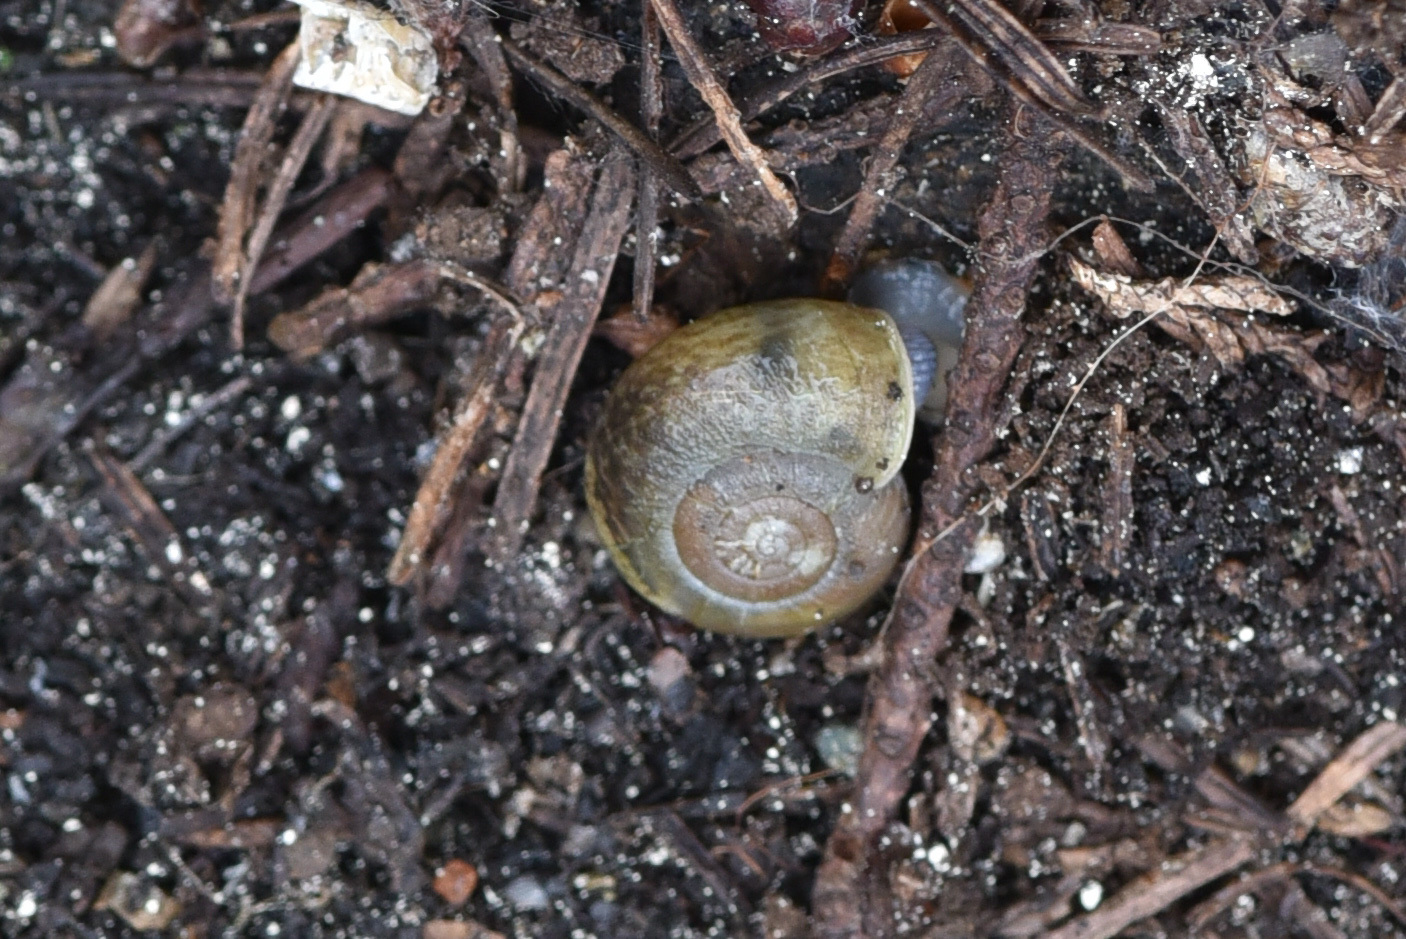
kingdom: Animalia
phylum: Mollusca
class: Gastropoda
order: Stylommatophora
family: Haplotrematidae
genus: Haplotrema
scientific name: Haplotrema vancouverense
